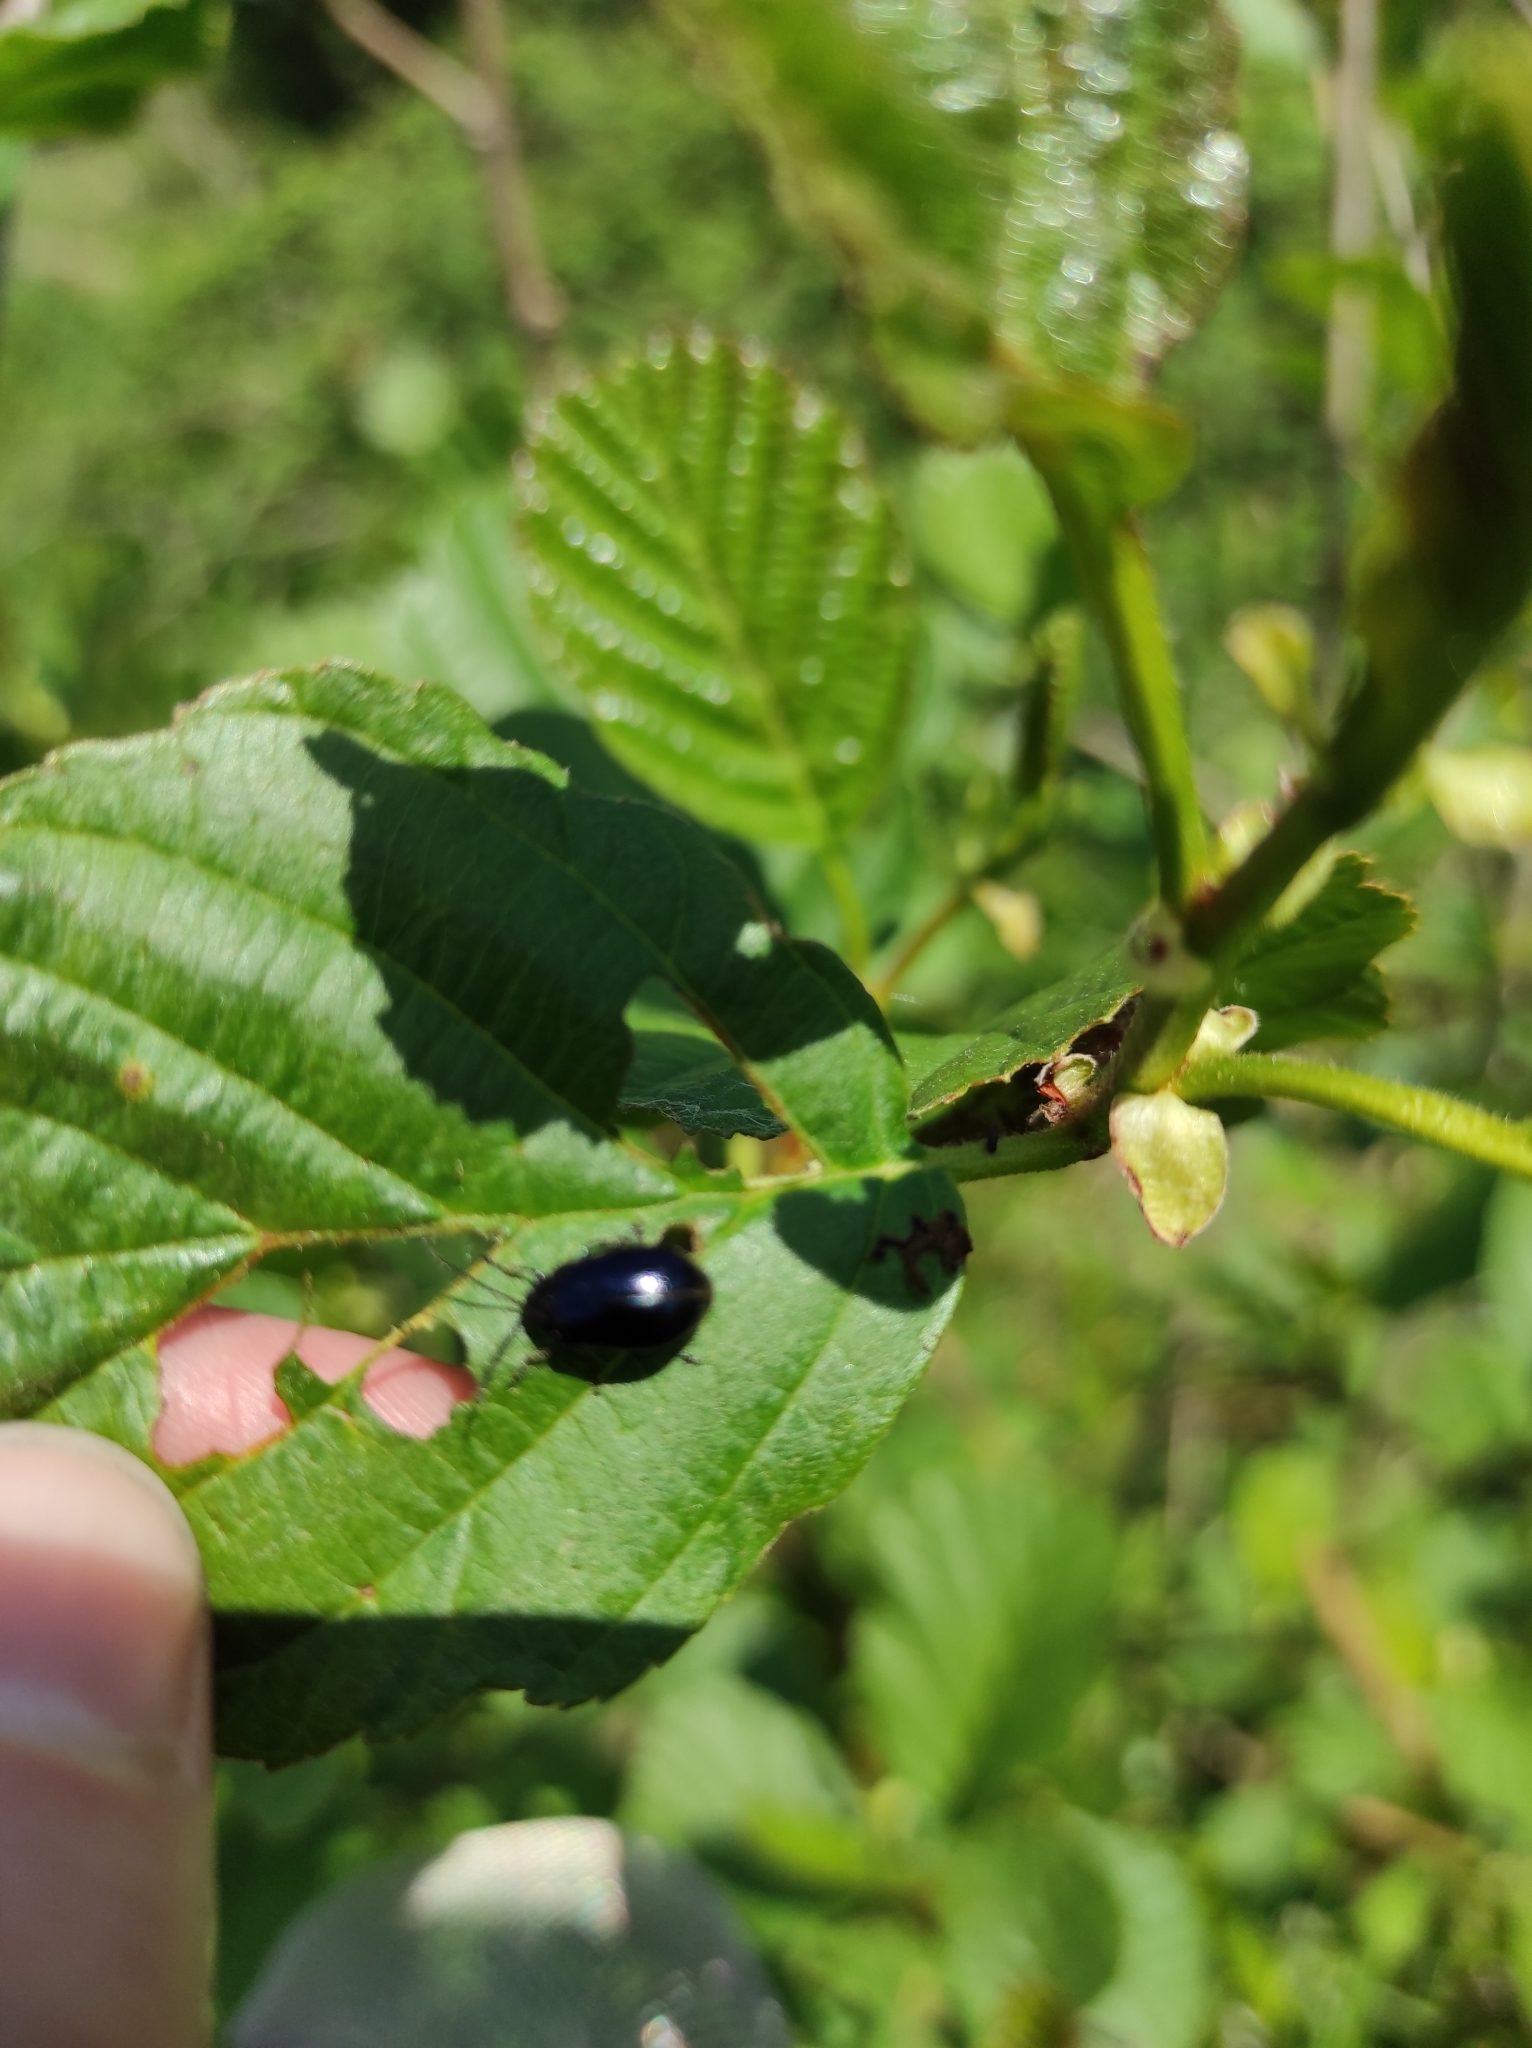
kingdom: Animalia
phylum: Arthropoda
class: Insecta
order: Coleoptera
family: Chrysomelidae
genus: Agelastica
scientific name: Agelastica alni
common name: Alder leaf beetle
